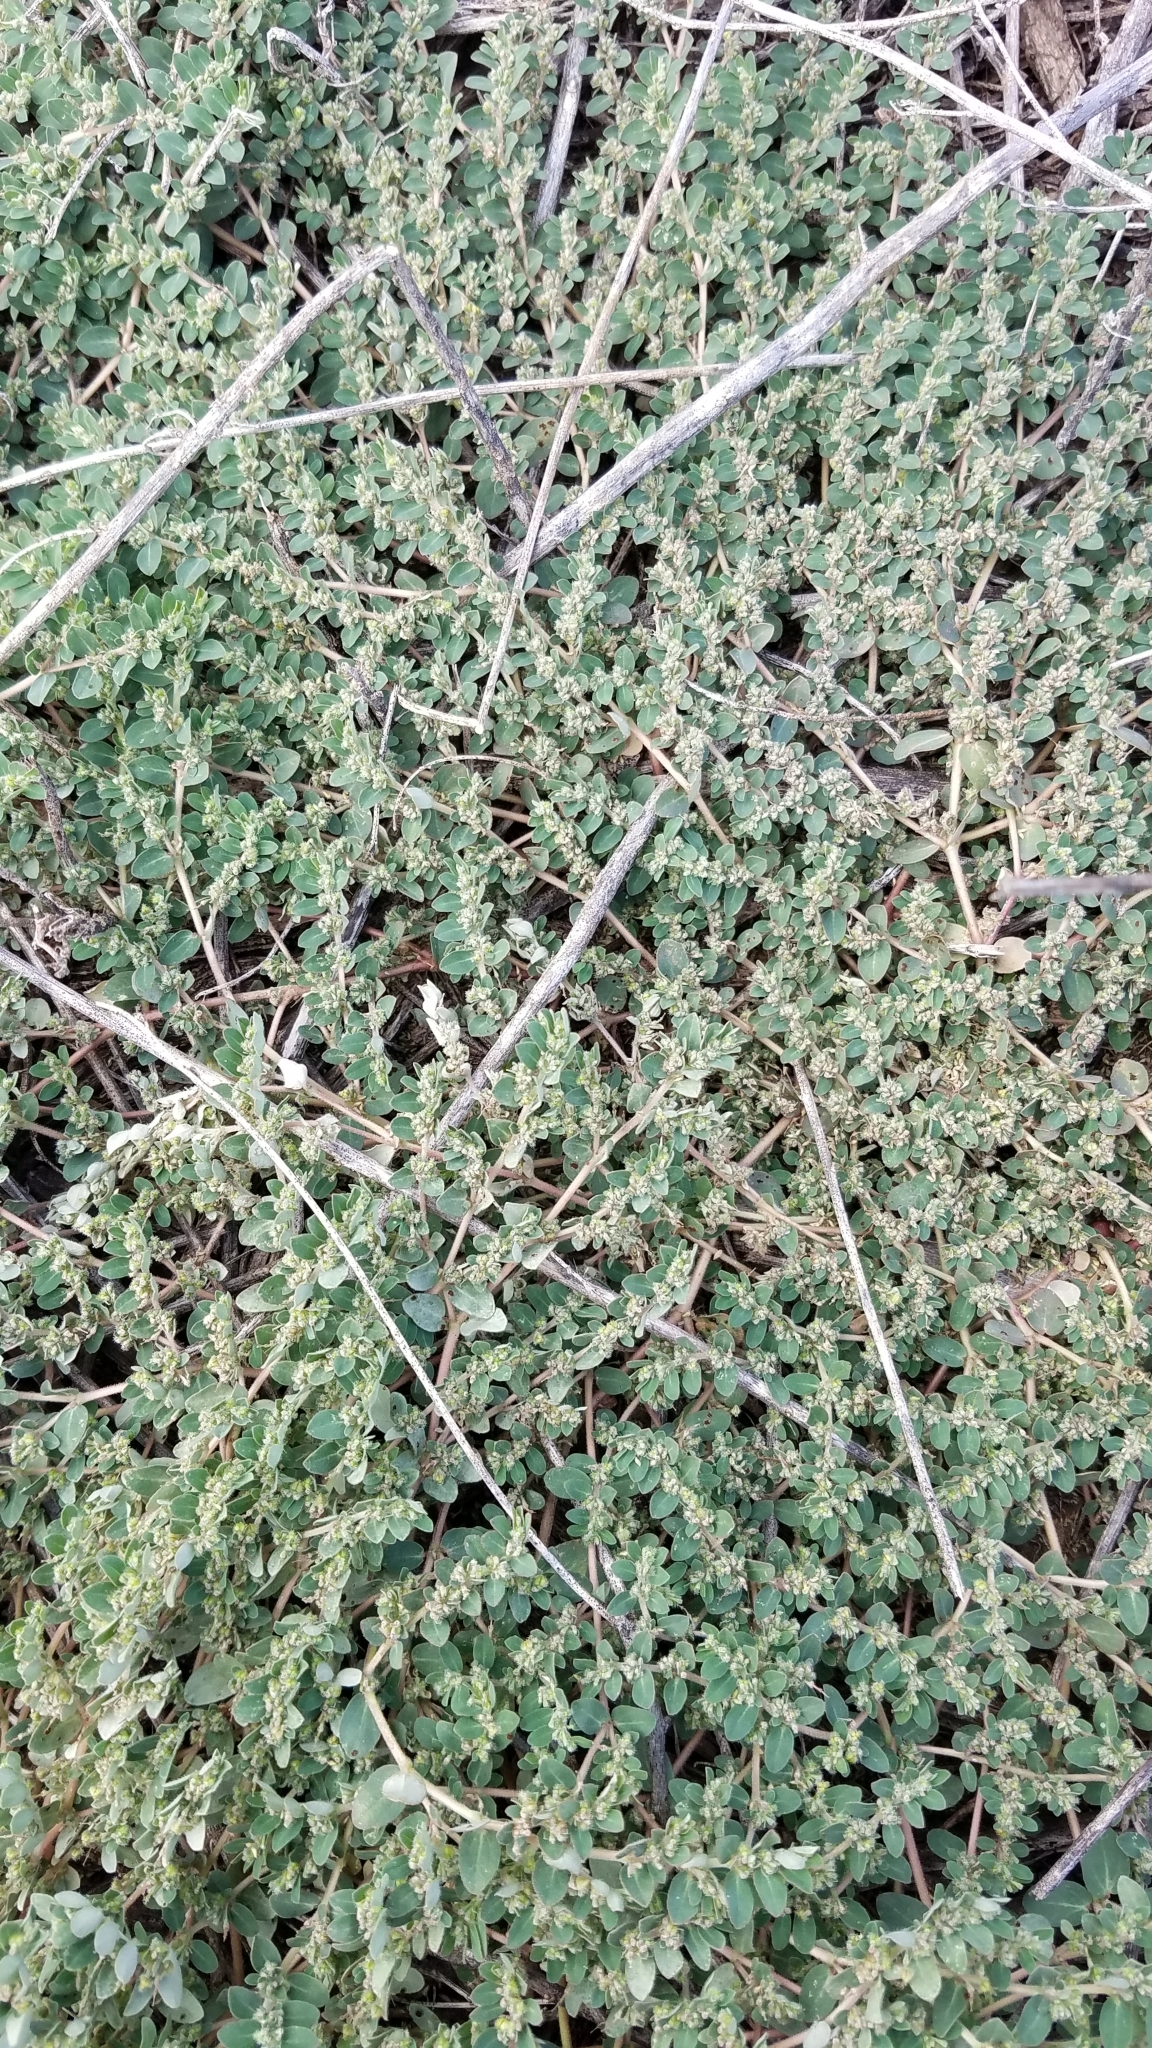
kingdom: Plantae
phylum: Tracheophyta
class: Magnoliopsida
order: Malpighiales
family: Euphorbiaceae
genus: Euphorbia
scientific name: Euphorbia prostrata
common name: Prostrate sandmat
